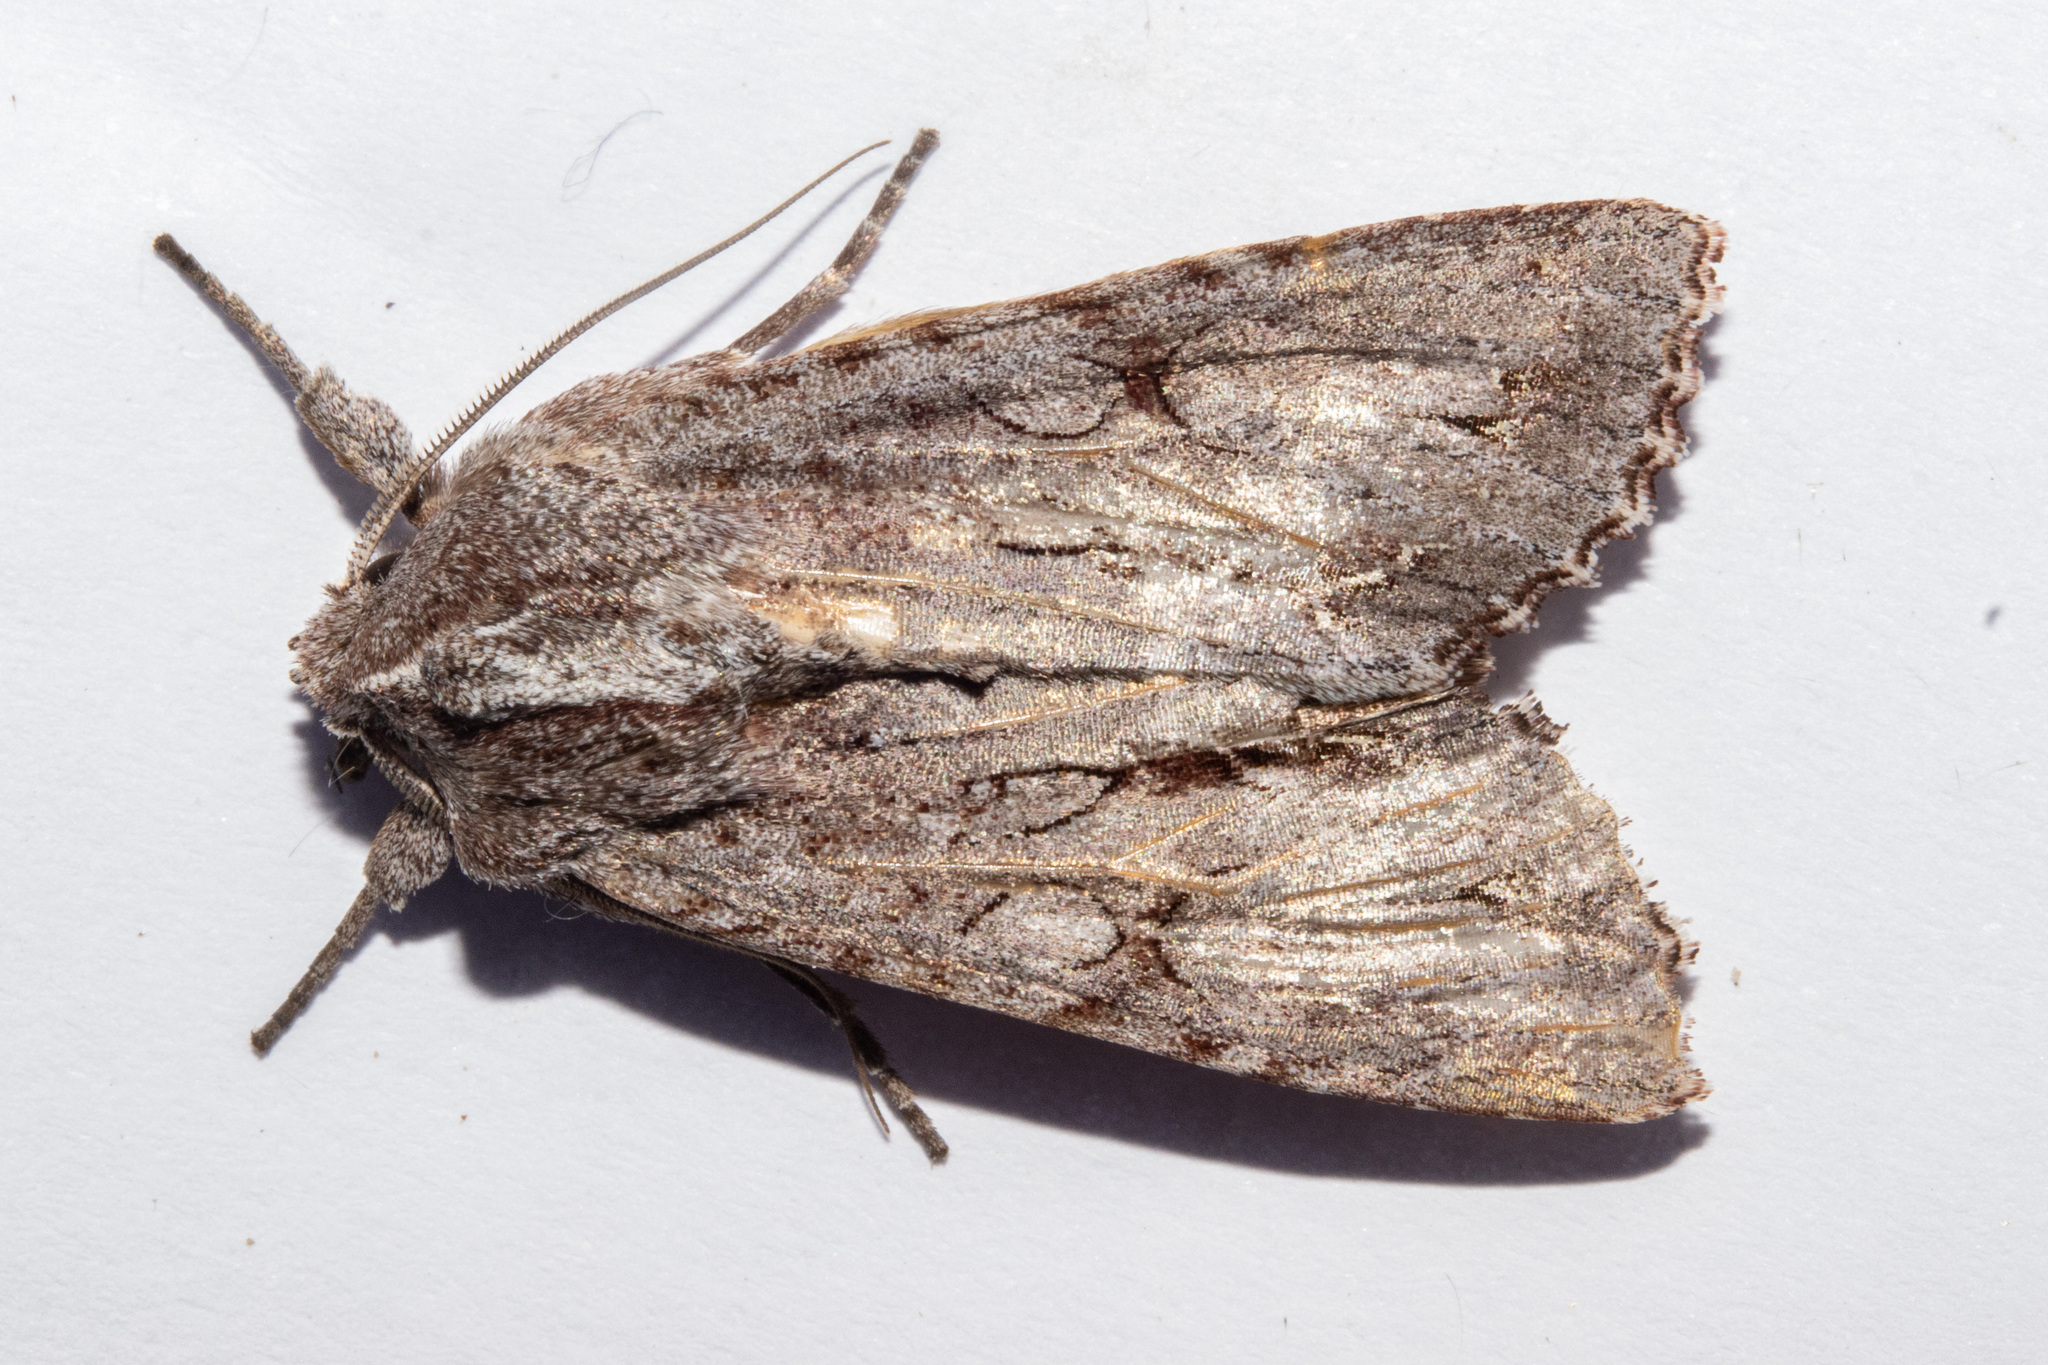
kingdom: Animalia
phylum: Arthropoda
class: Insecta
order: Lepidoptera
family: Noctuidae
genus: Ichneutica
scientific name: Ichneutica
